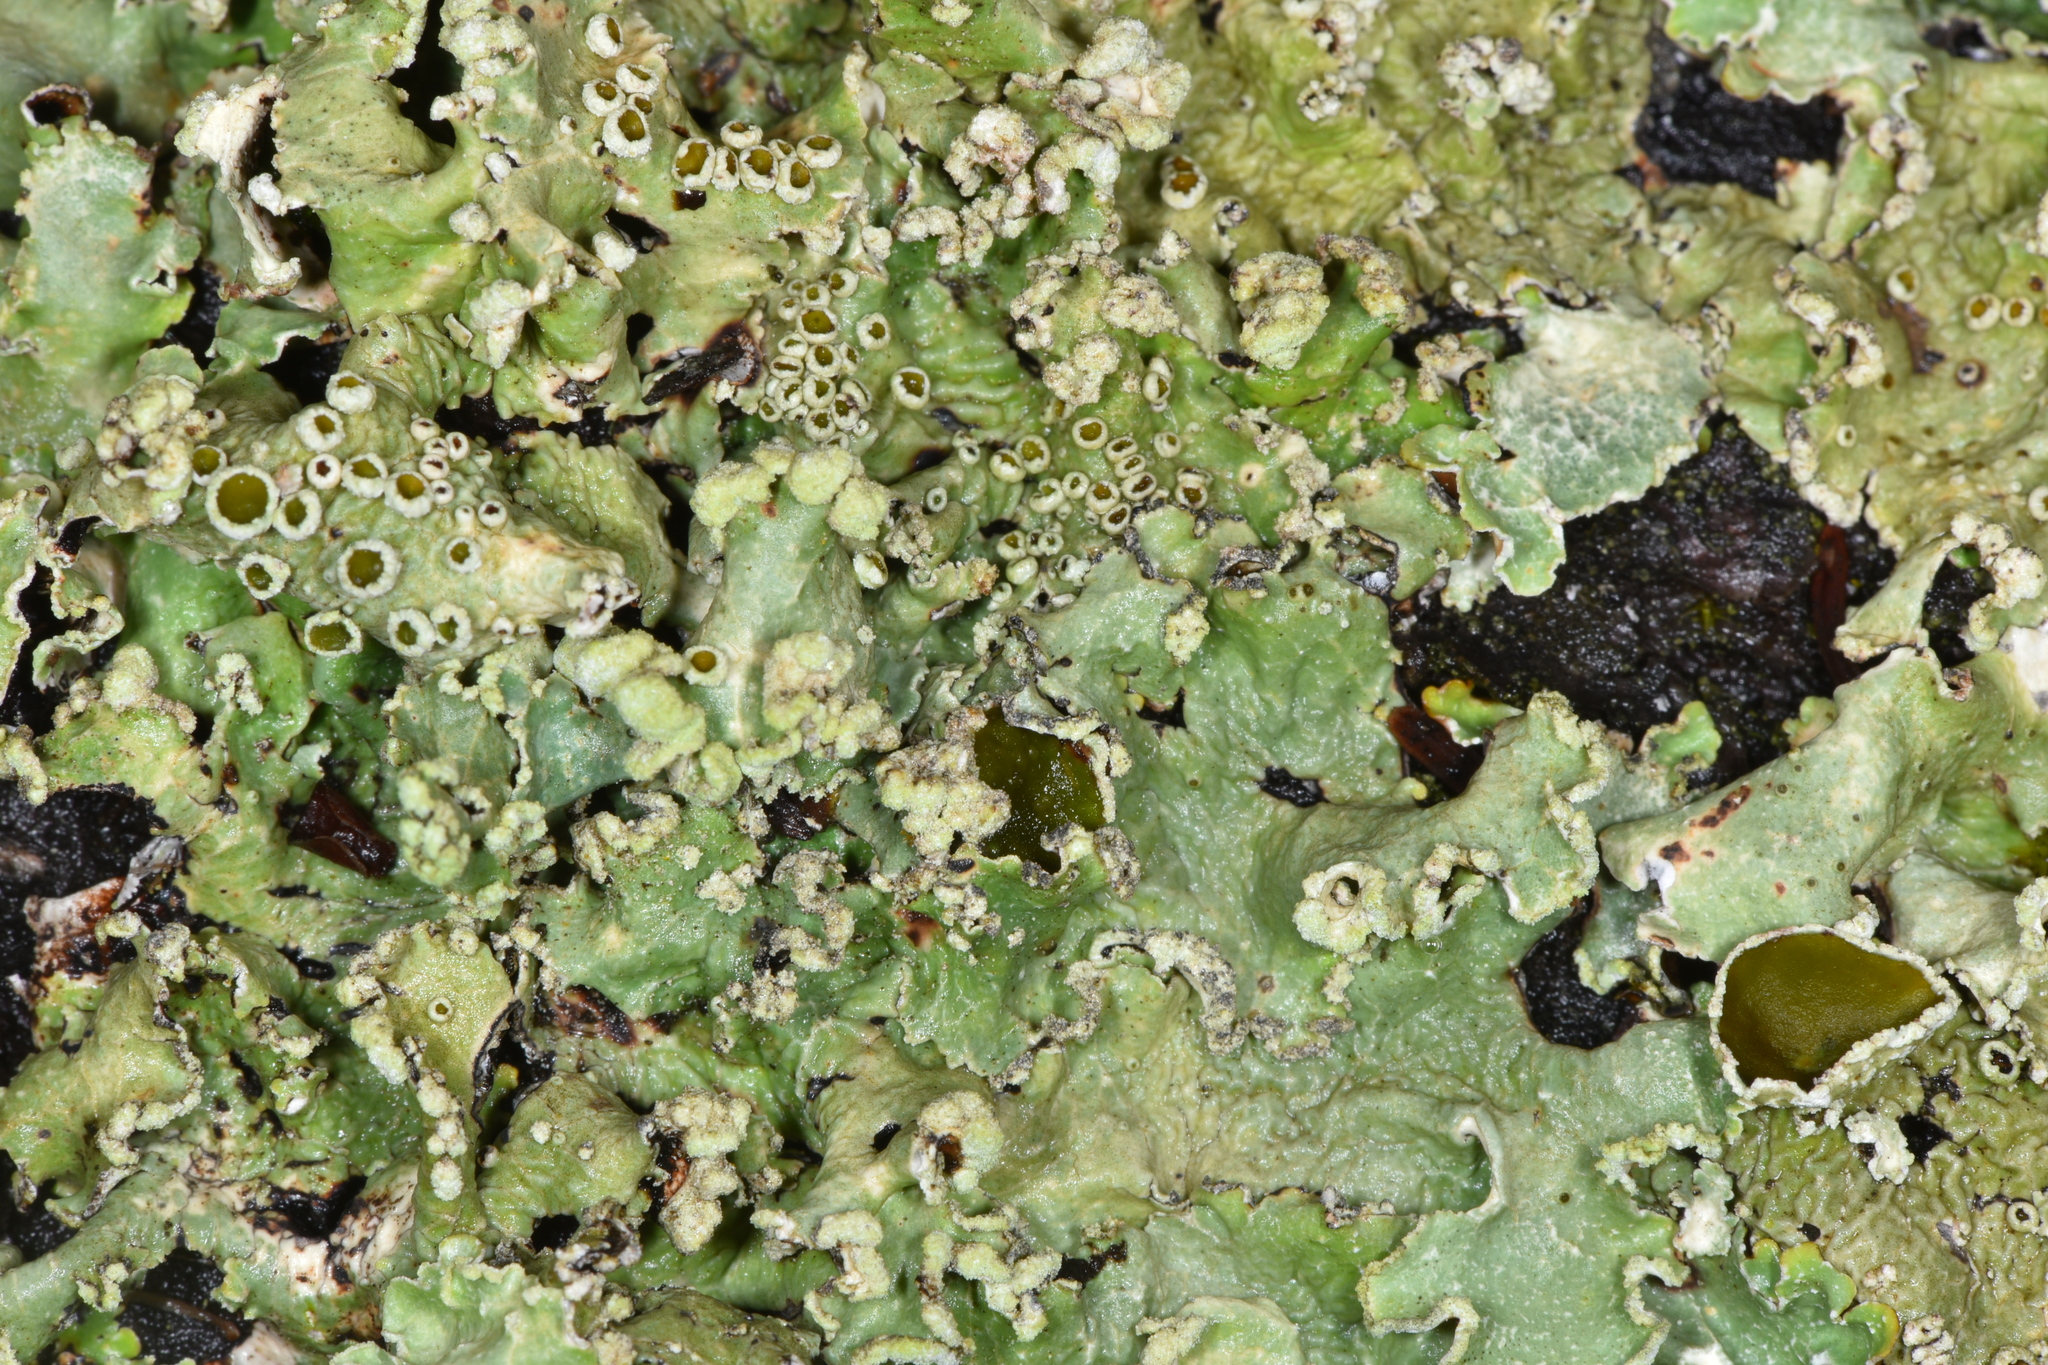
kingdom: Fungi
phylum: Ascomycota
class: Lecanoromycetes
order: Lecanorales
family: Parmeliaceae
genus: Flavopunctelia
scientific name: Flavopunctelia flaventior
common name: Speckled greenshield
